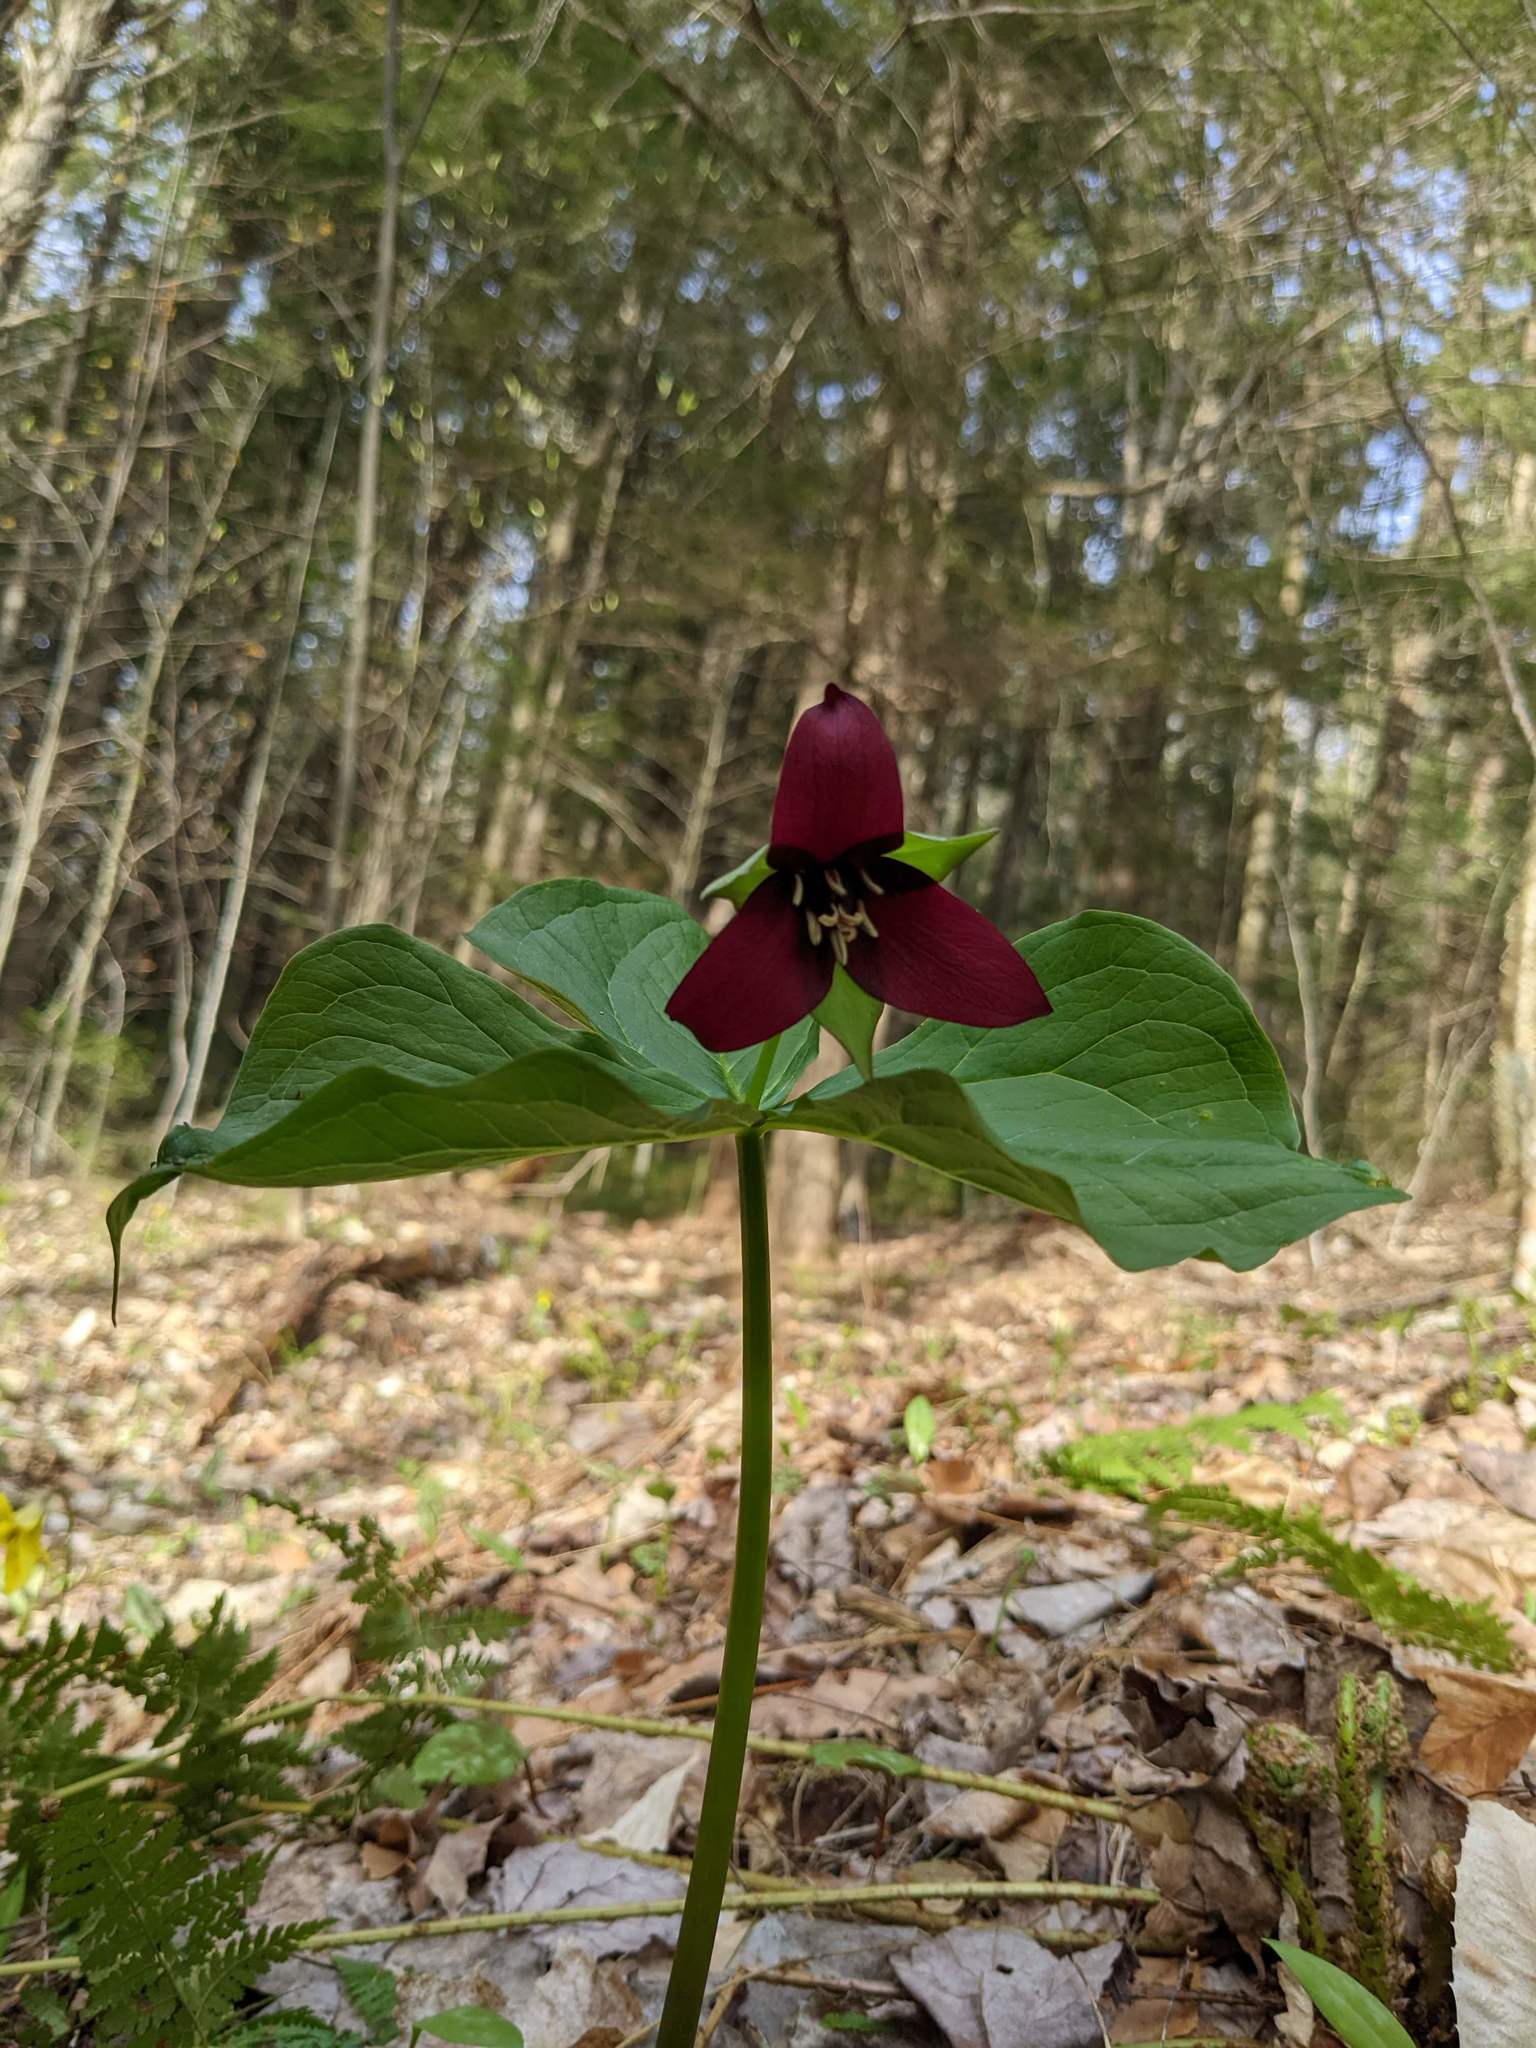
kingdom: Plantae
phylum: Tracheophyta
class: Liliopsida
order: Liliales
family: Melanthiaceae
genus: Trillium
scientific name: Trillium erectum
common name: Purple trillium
